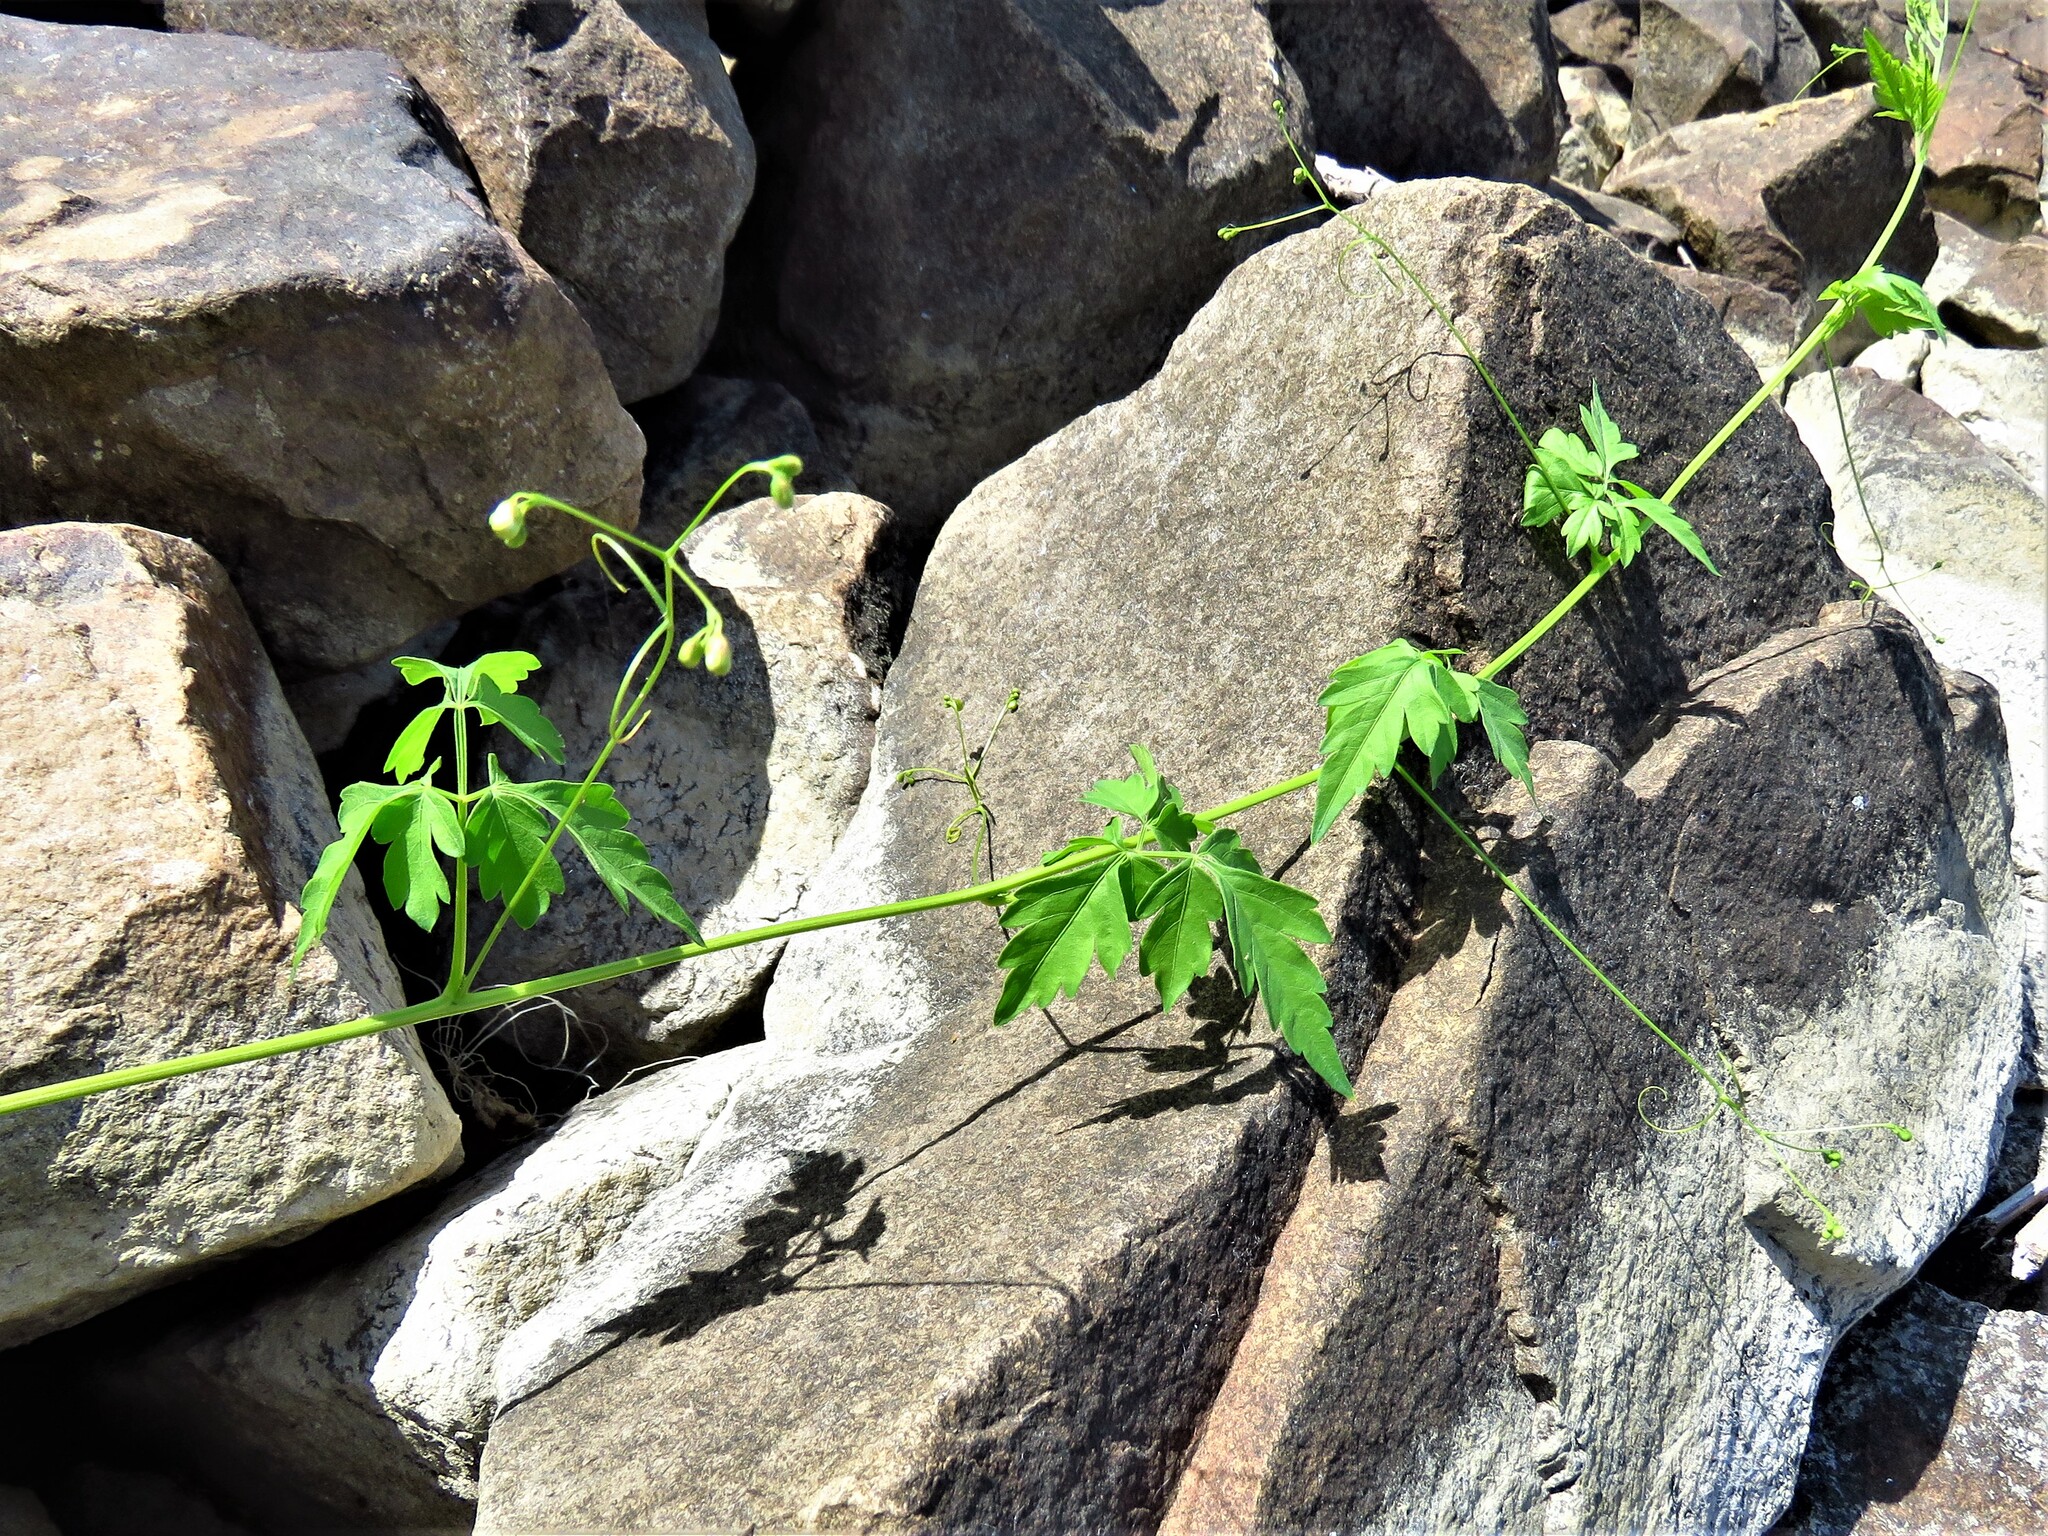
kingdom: Plantae
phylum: Tracheophyta
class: Magnoliopsida
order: Sapindales
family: Sapindaceae
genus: Cardiospermum
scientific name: Cardiospermum halicacabum
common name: Balloon vine
